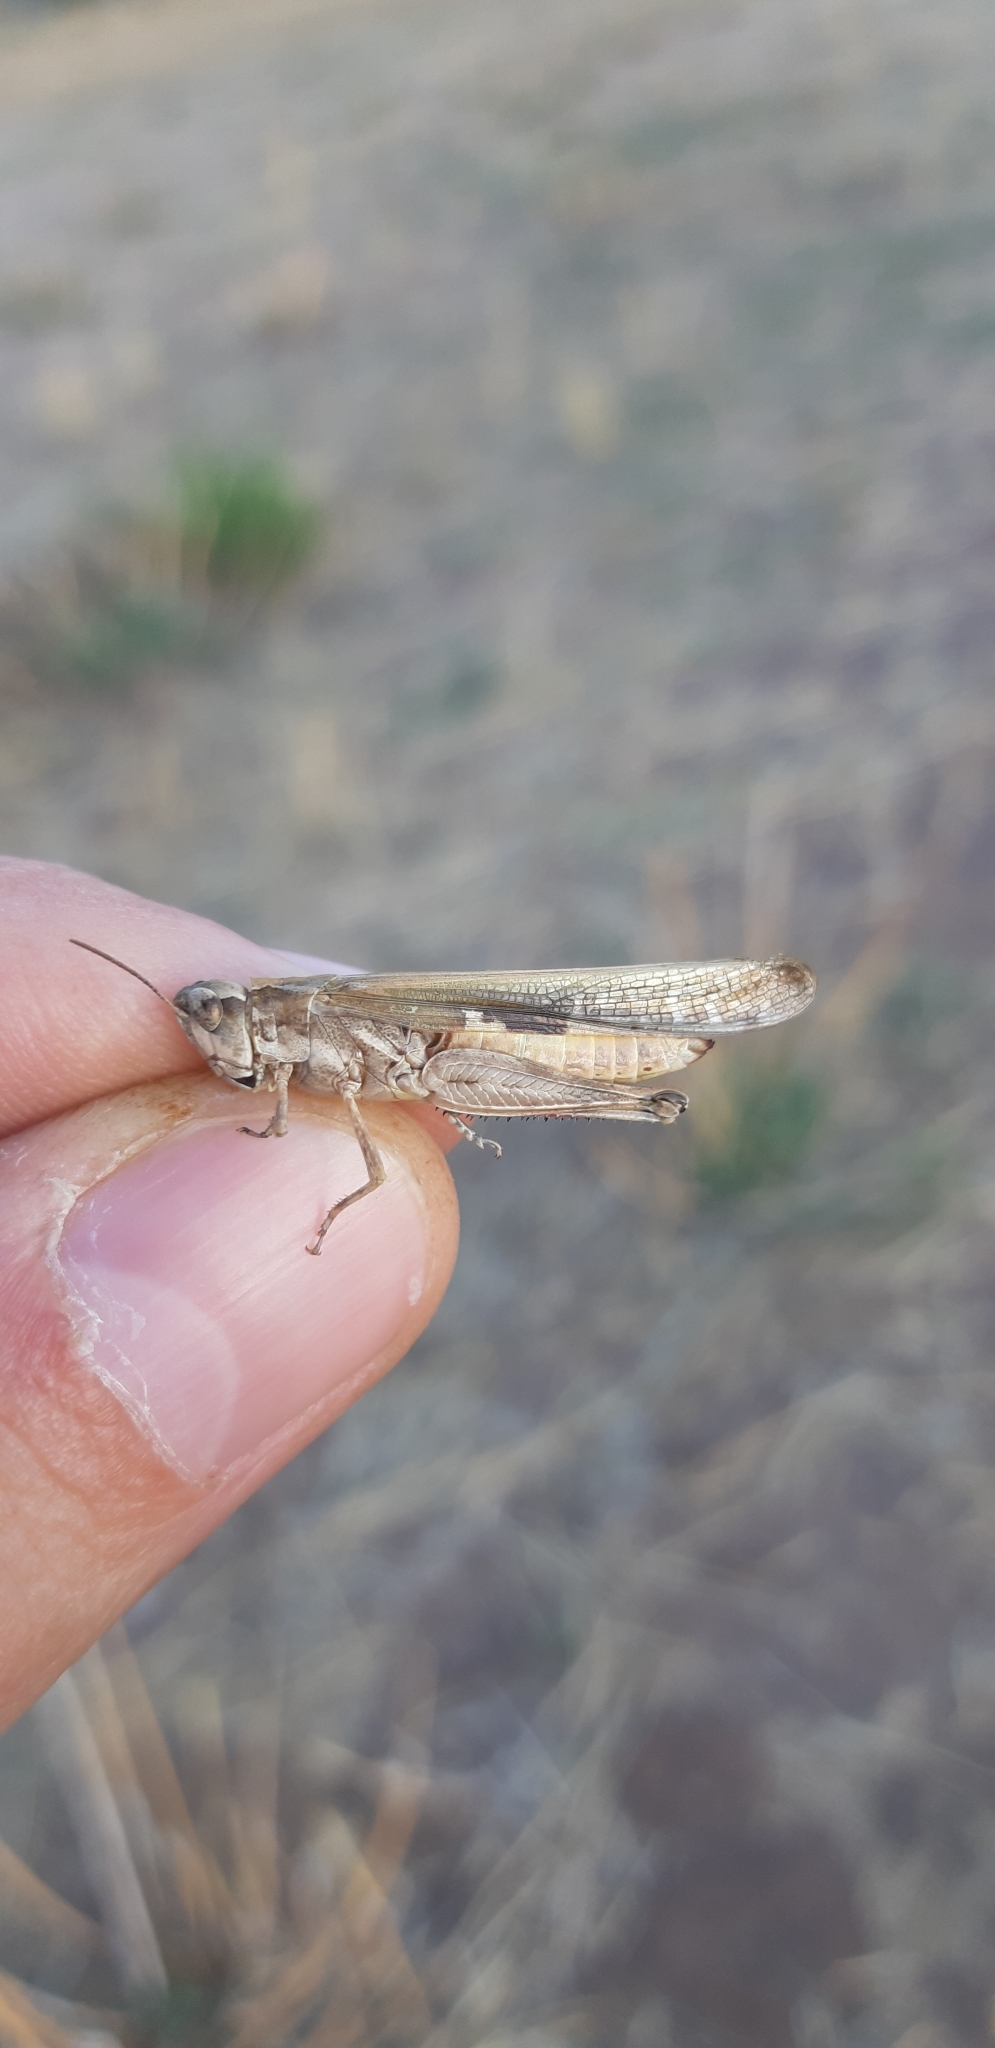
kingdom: Animalia
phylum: Arthropoda
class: Insecta
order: Orthoptera
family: Acrididae
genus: Aiolopus
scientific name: Aiolopus puissanti
